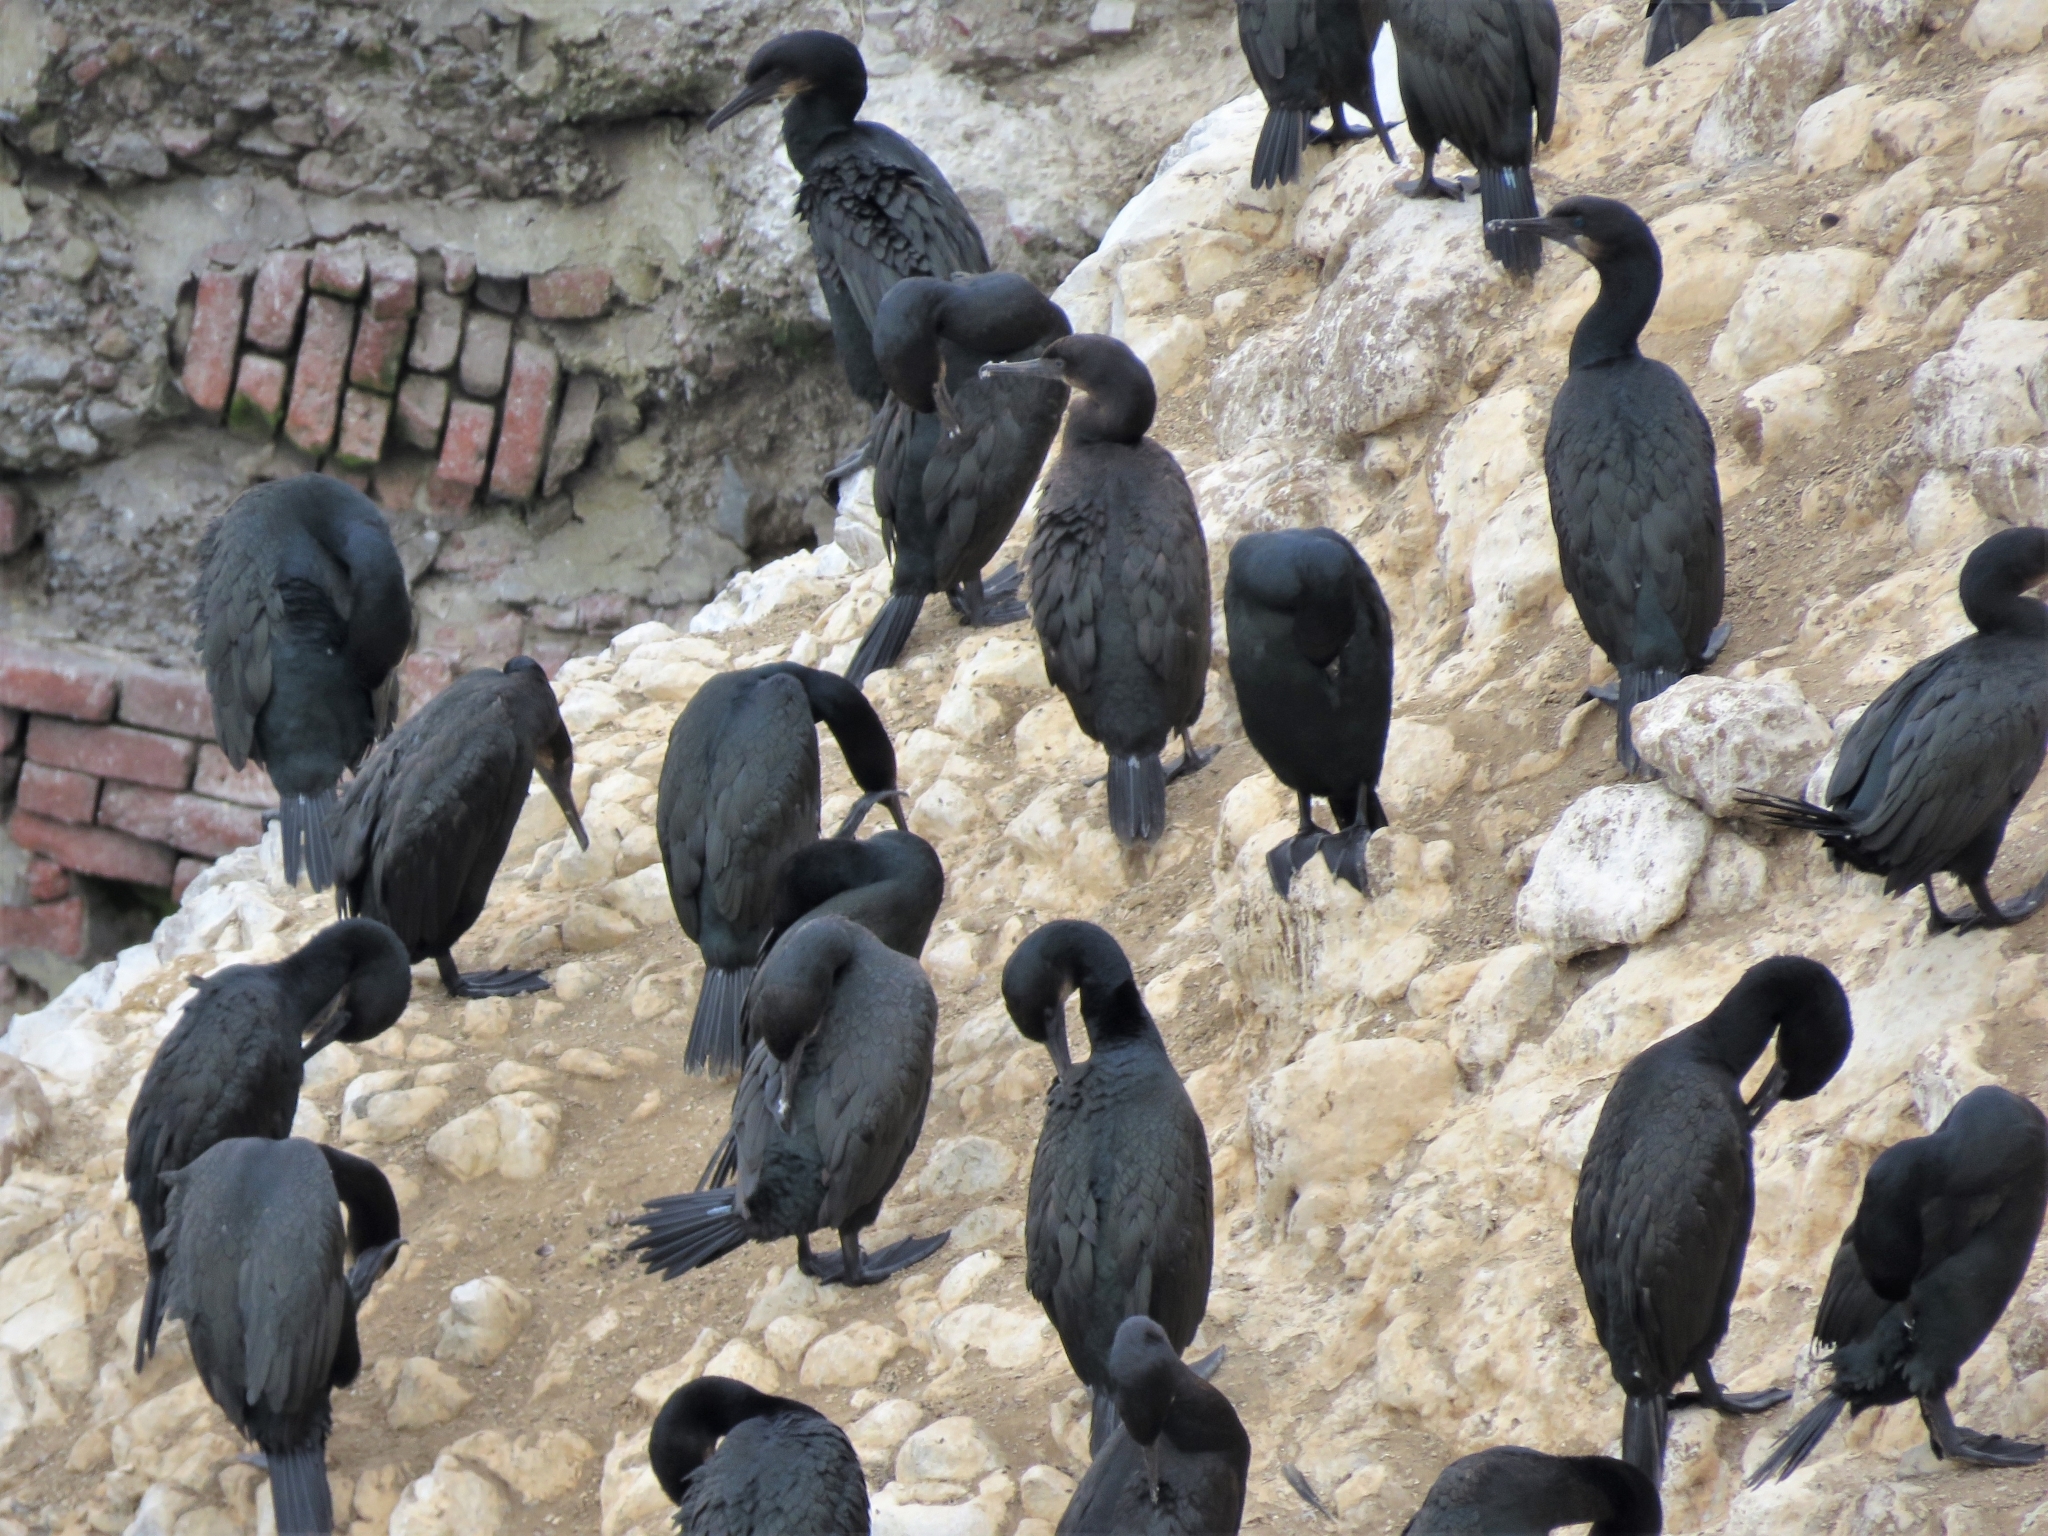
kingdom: Animalia
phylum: Chordata
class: Aves
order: Suliformes
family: Phalacrocoracidae
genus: Urile
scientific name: Urile penicillatus
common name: Brandt's cormorant
